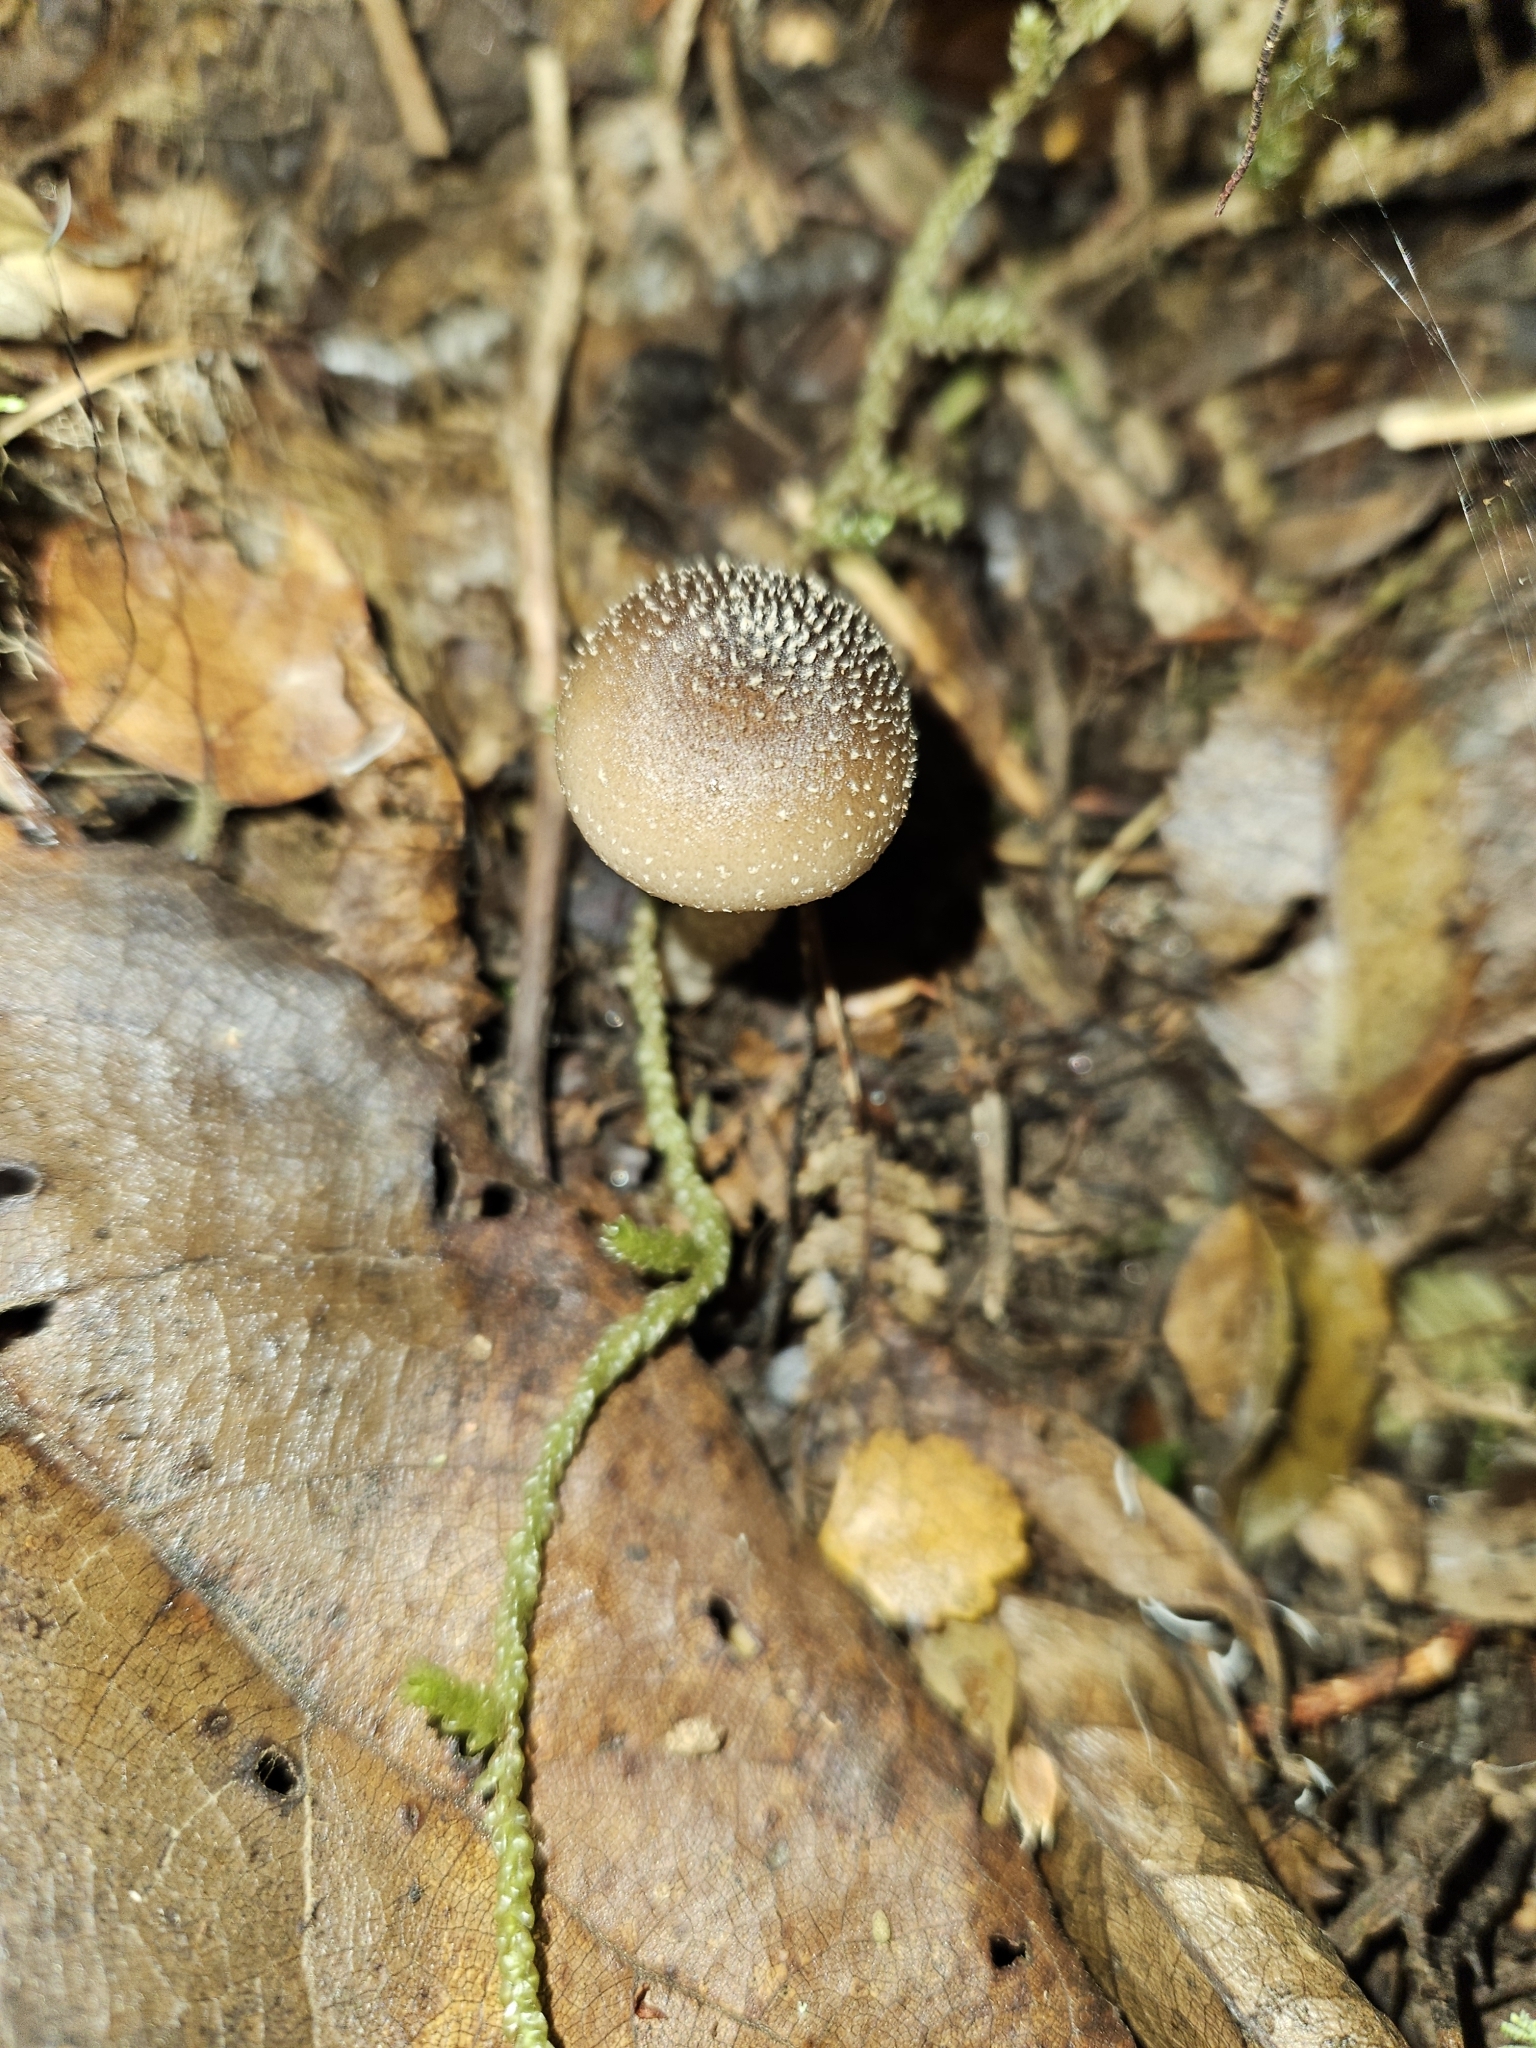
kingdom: Fungi
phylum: Basidiomycota
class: Agaricomycetes
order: Agaricales
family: Physalacriaceae
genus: Armillaria
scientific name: Armillaria novae-zelandiae
